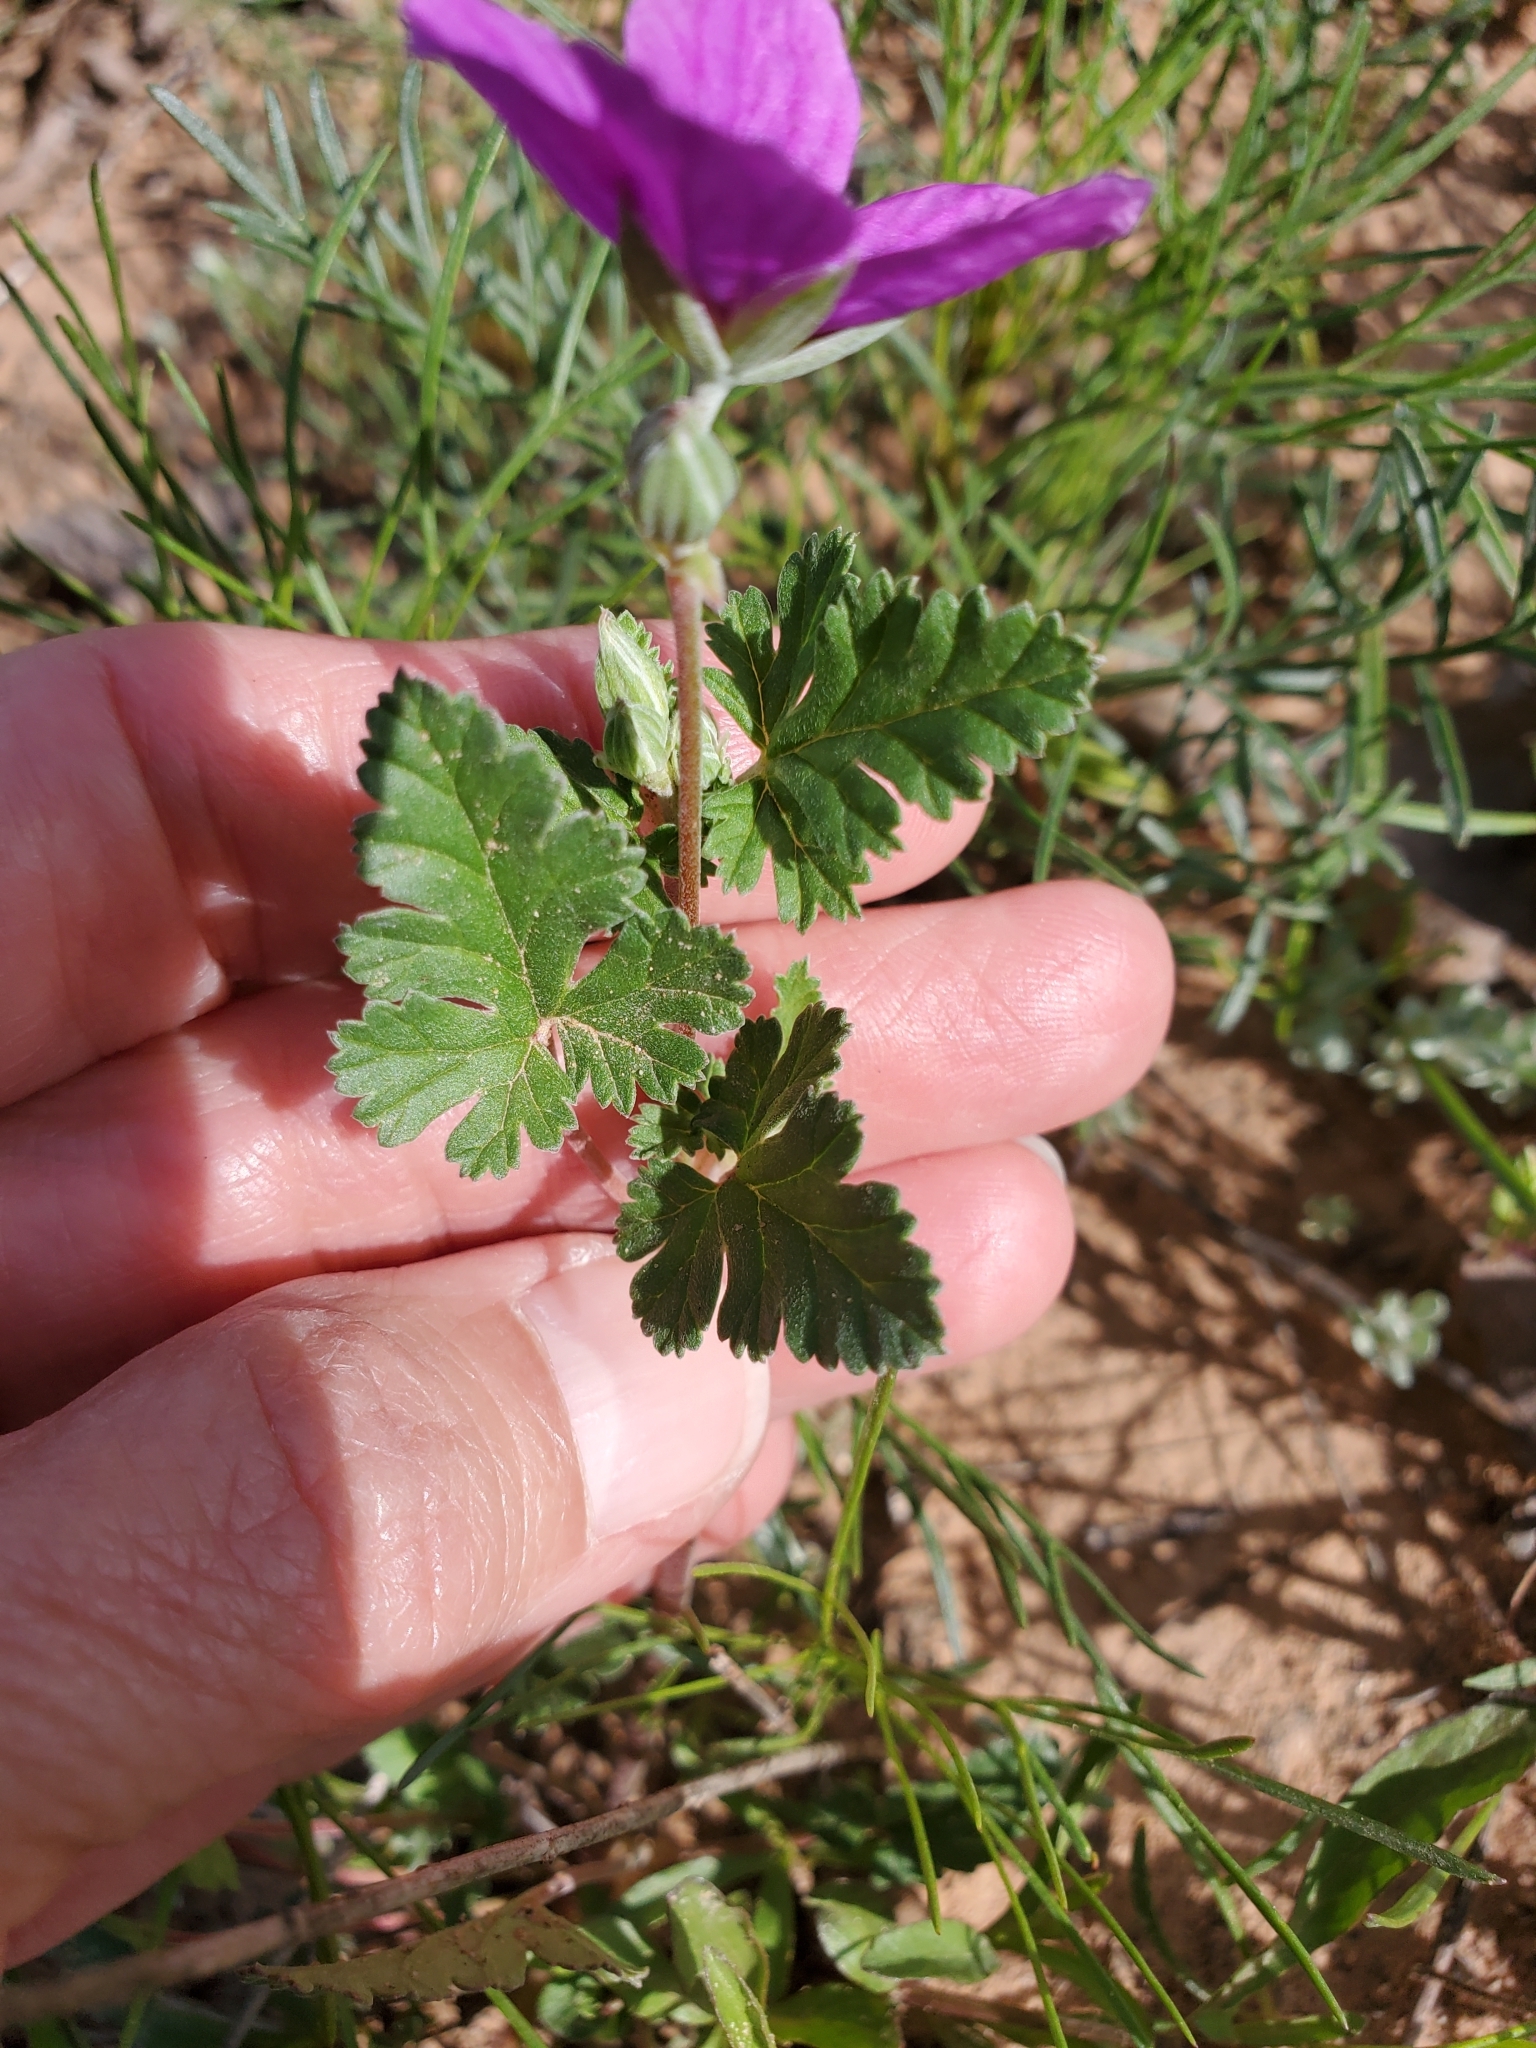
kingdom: Plantae
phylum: Tracheophyta
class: Magnoliopsida
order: Geraniales
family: Geraniaceae
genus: Erodium
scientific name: Erodium texanum
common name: Texas stork's-bill
